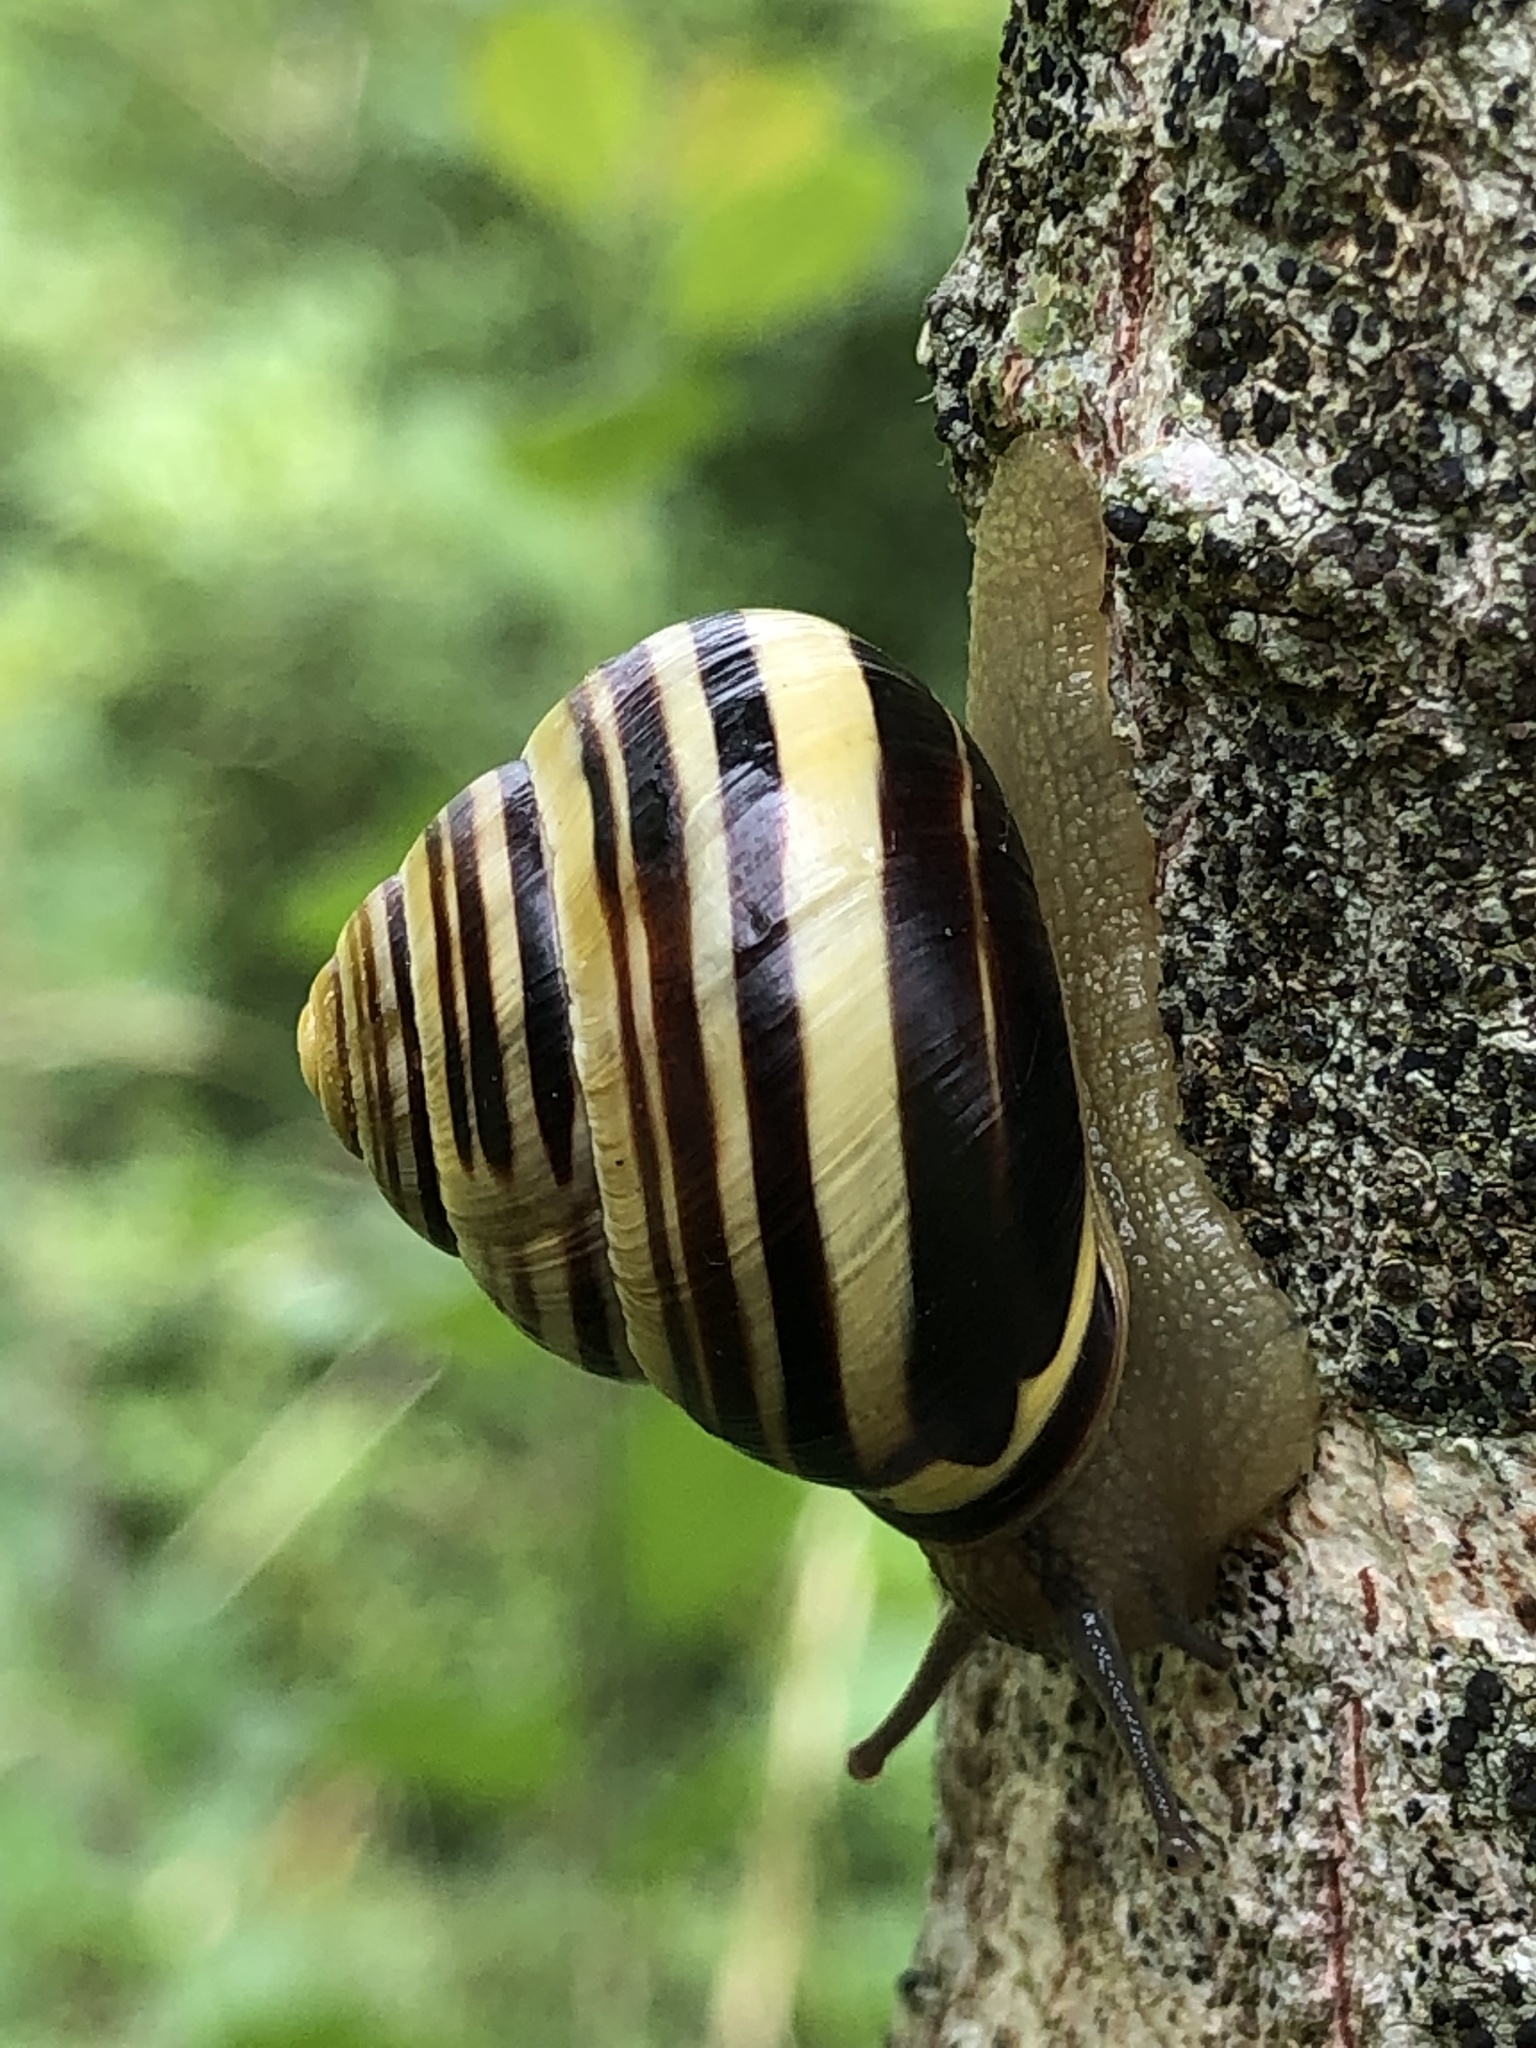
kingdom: Animalia
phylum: Mollusca
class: Gastropoda
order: Stylommatophora
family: Helicidae
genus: Cepaea
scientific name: Cepaea nemoralis
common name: Grovesnail
